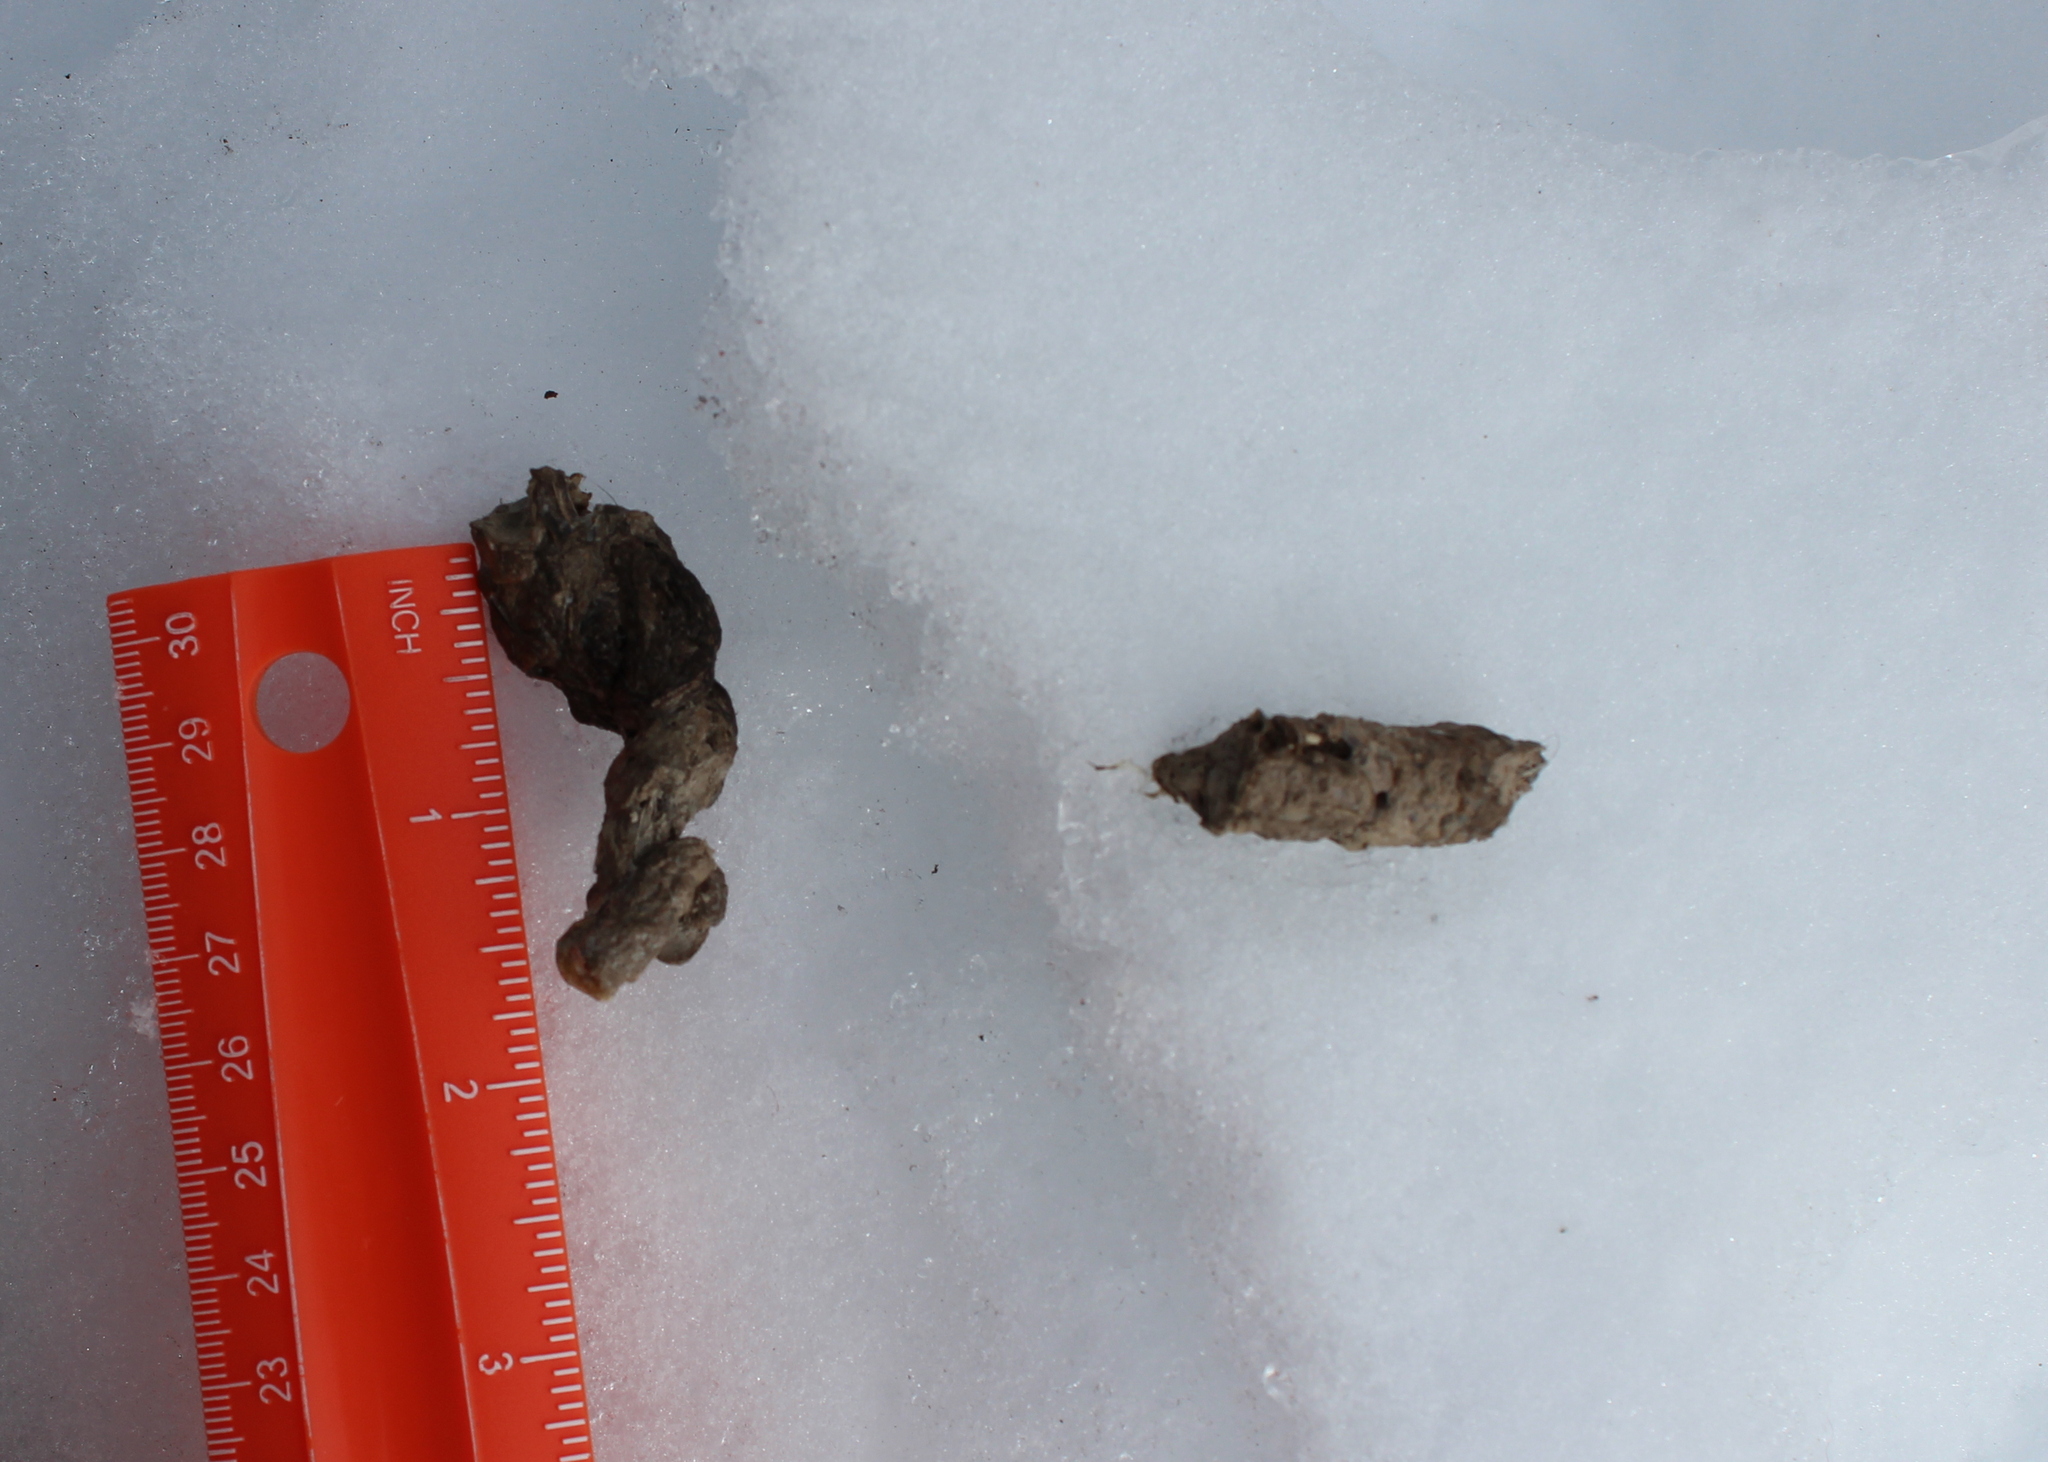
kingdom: Animalia
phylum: Chordata
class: Mammalia
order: Carnivora
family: Mustelidae
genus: Pekania
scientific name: Pekania pennanti
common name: Fisher
